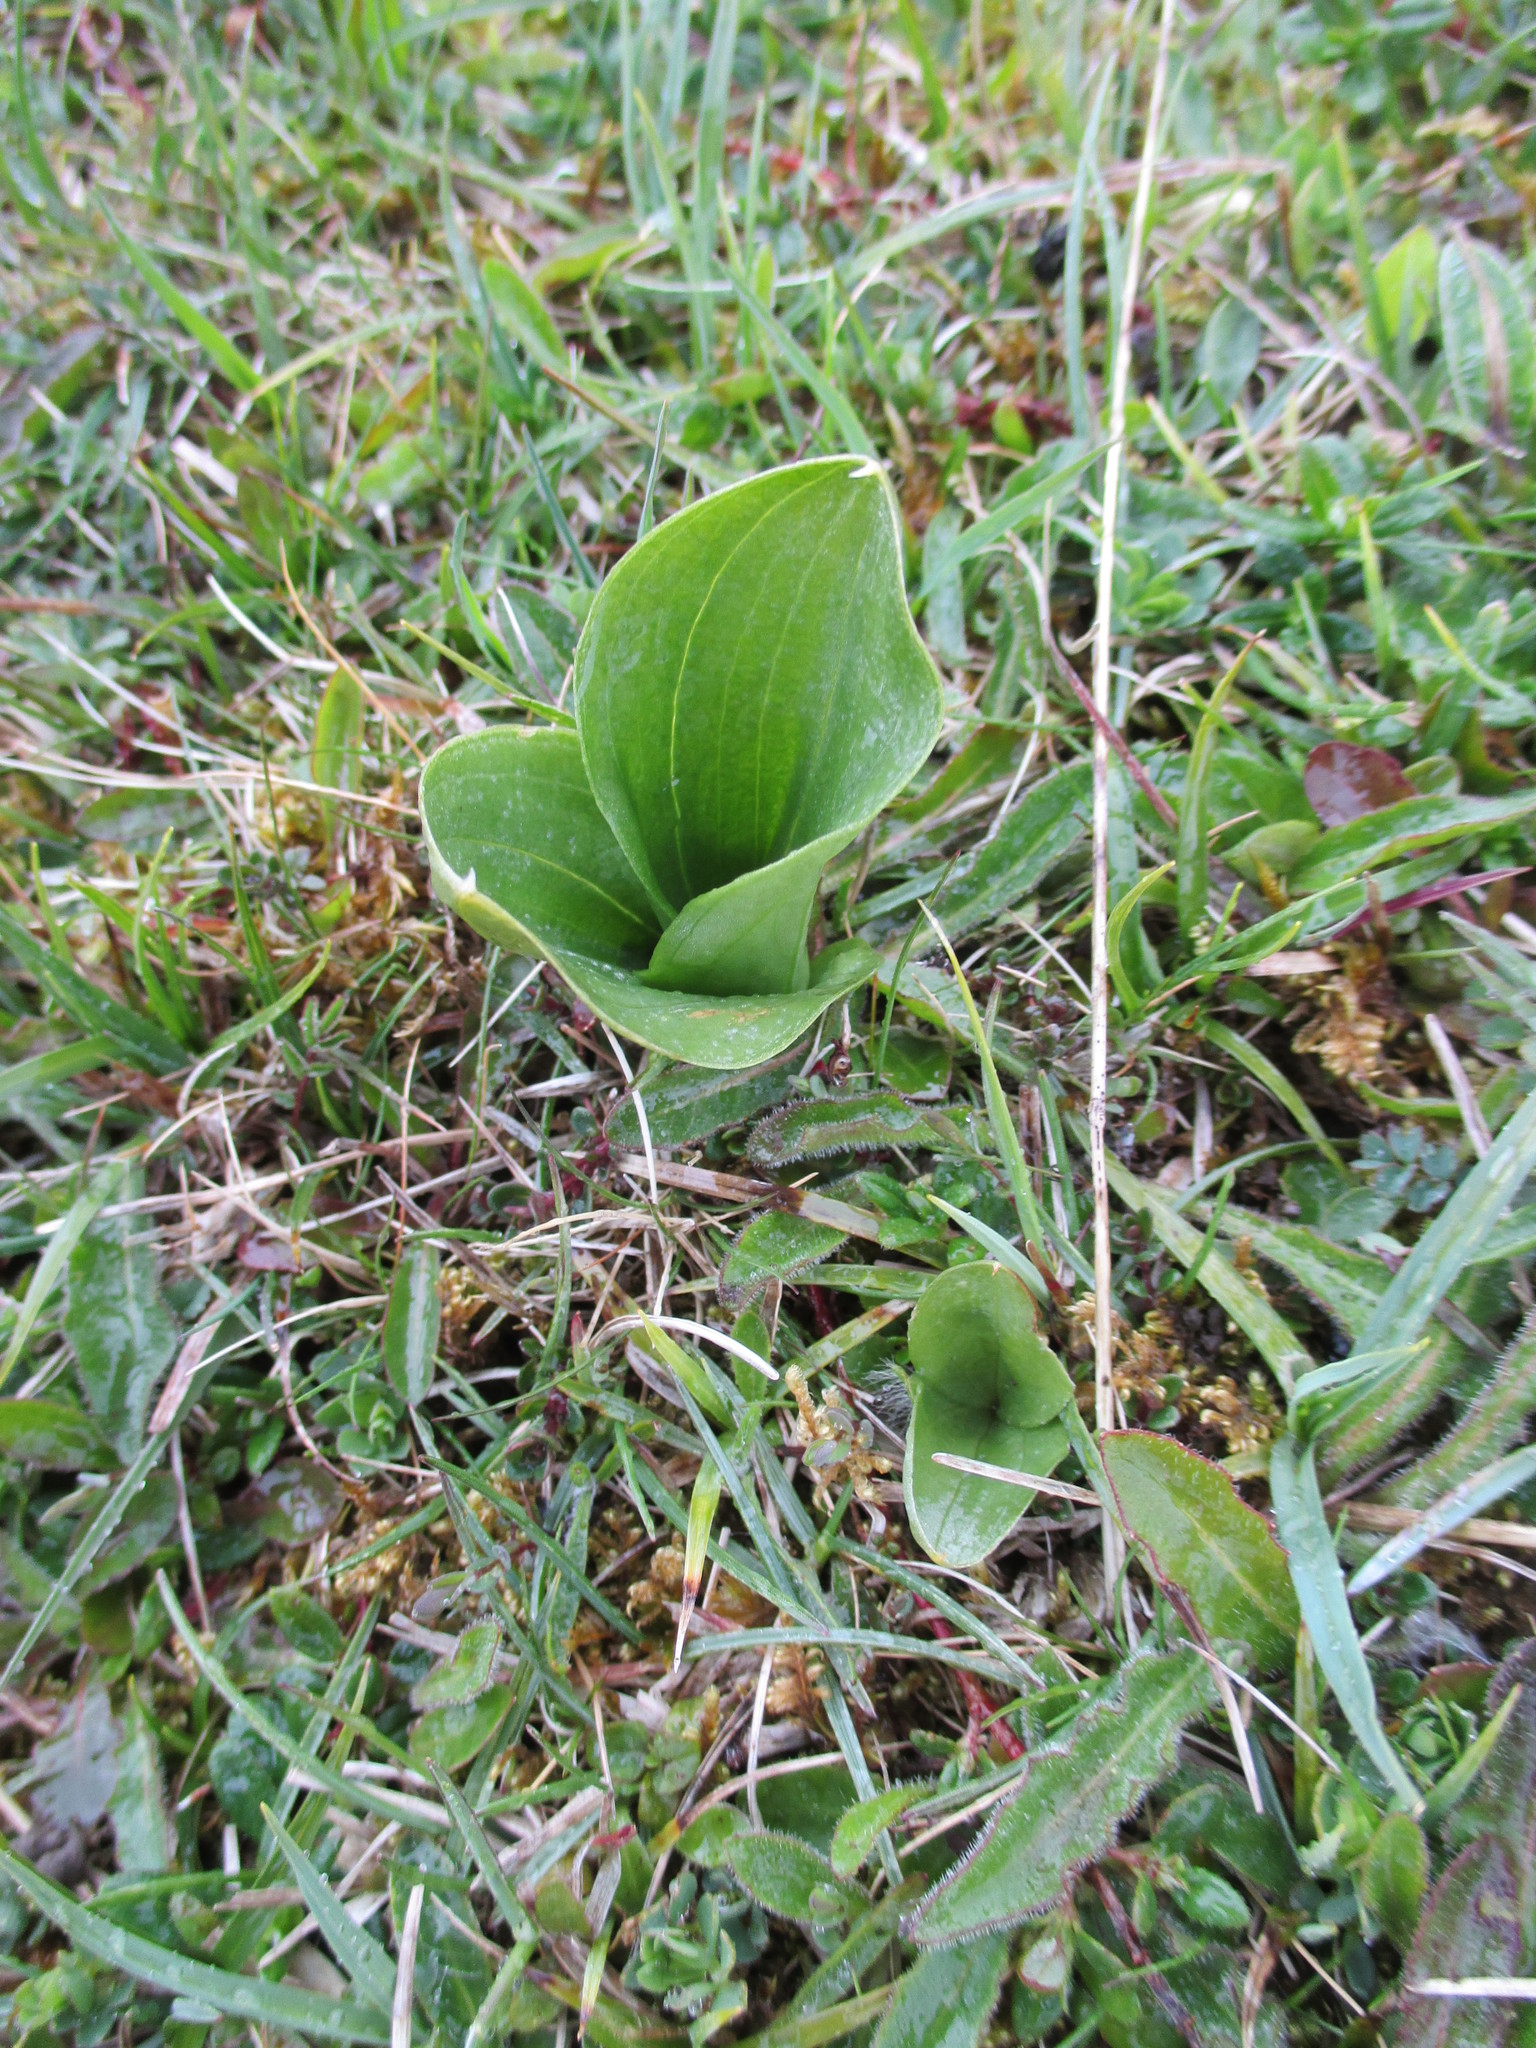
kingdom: Plantae
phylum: Tracheophyta
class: Liliopsida
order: Asparagales
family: Orchidaceae
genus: Neottia
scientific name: Neottia ovata
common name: Common twayblade
